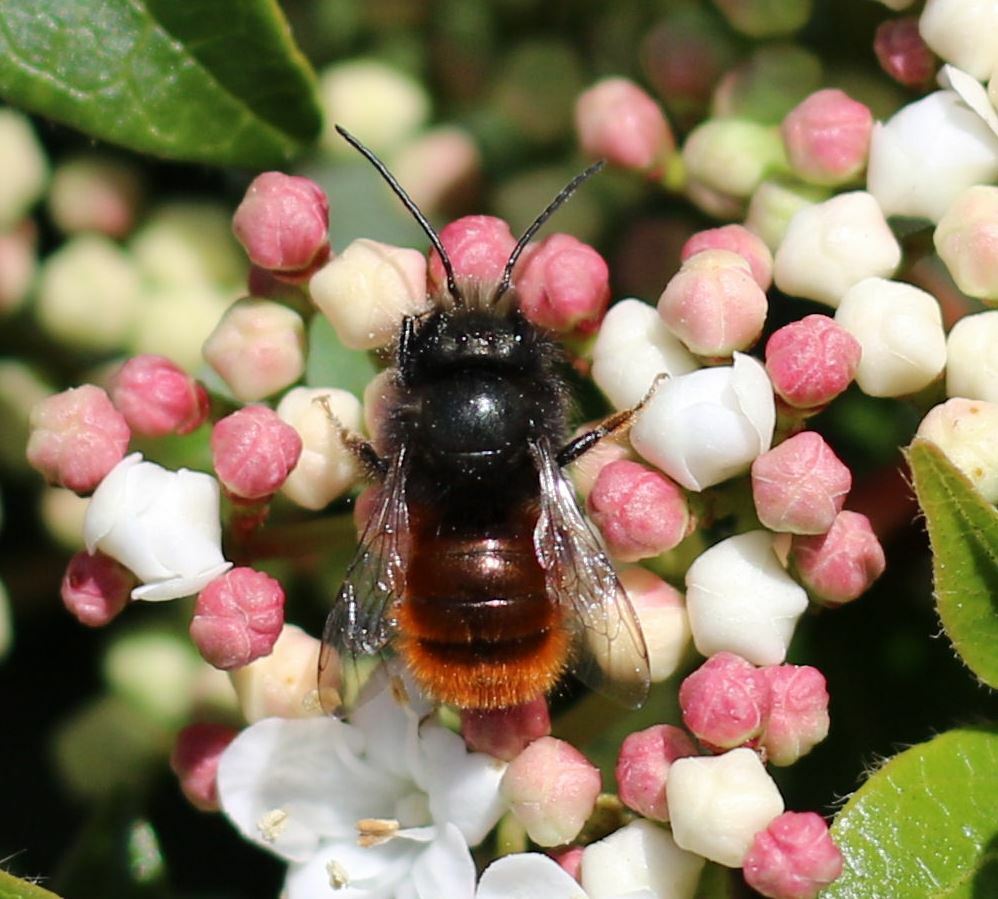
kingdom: Animalia
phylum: Arthropoda
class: Insecta
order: Hymenoptera
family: Megachilidae
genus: Osmia
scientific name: Osmia cornuta
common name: Mason bee
